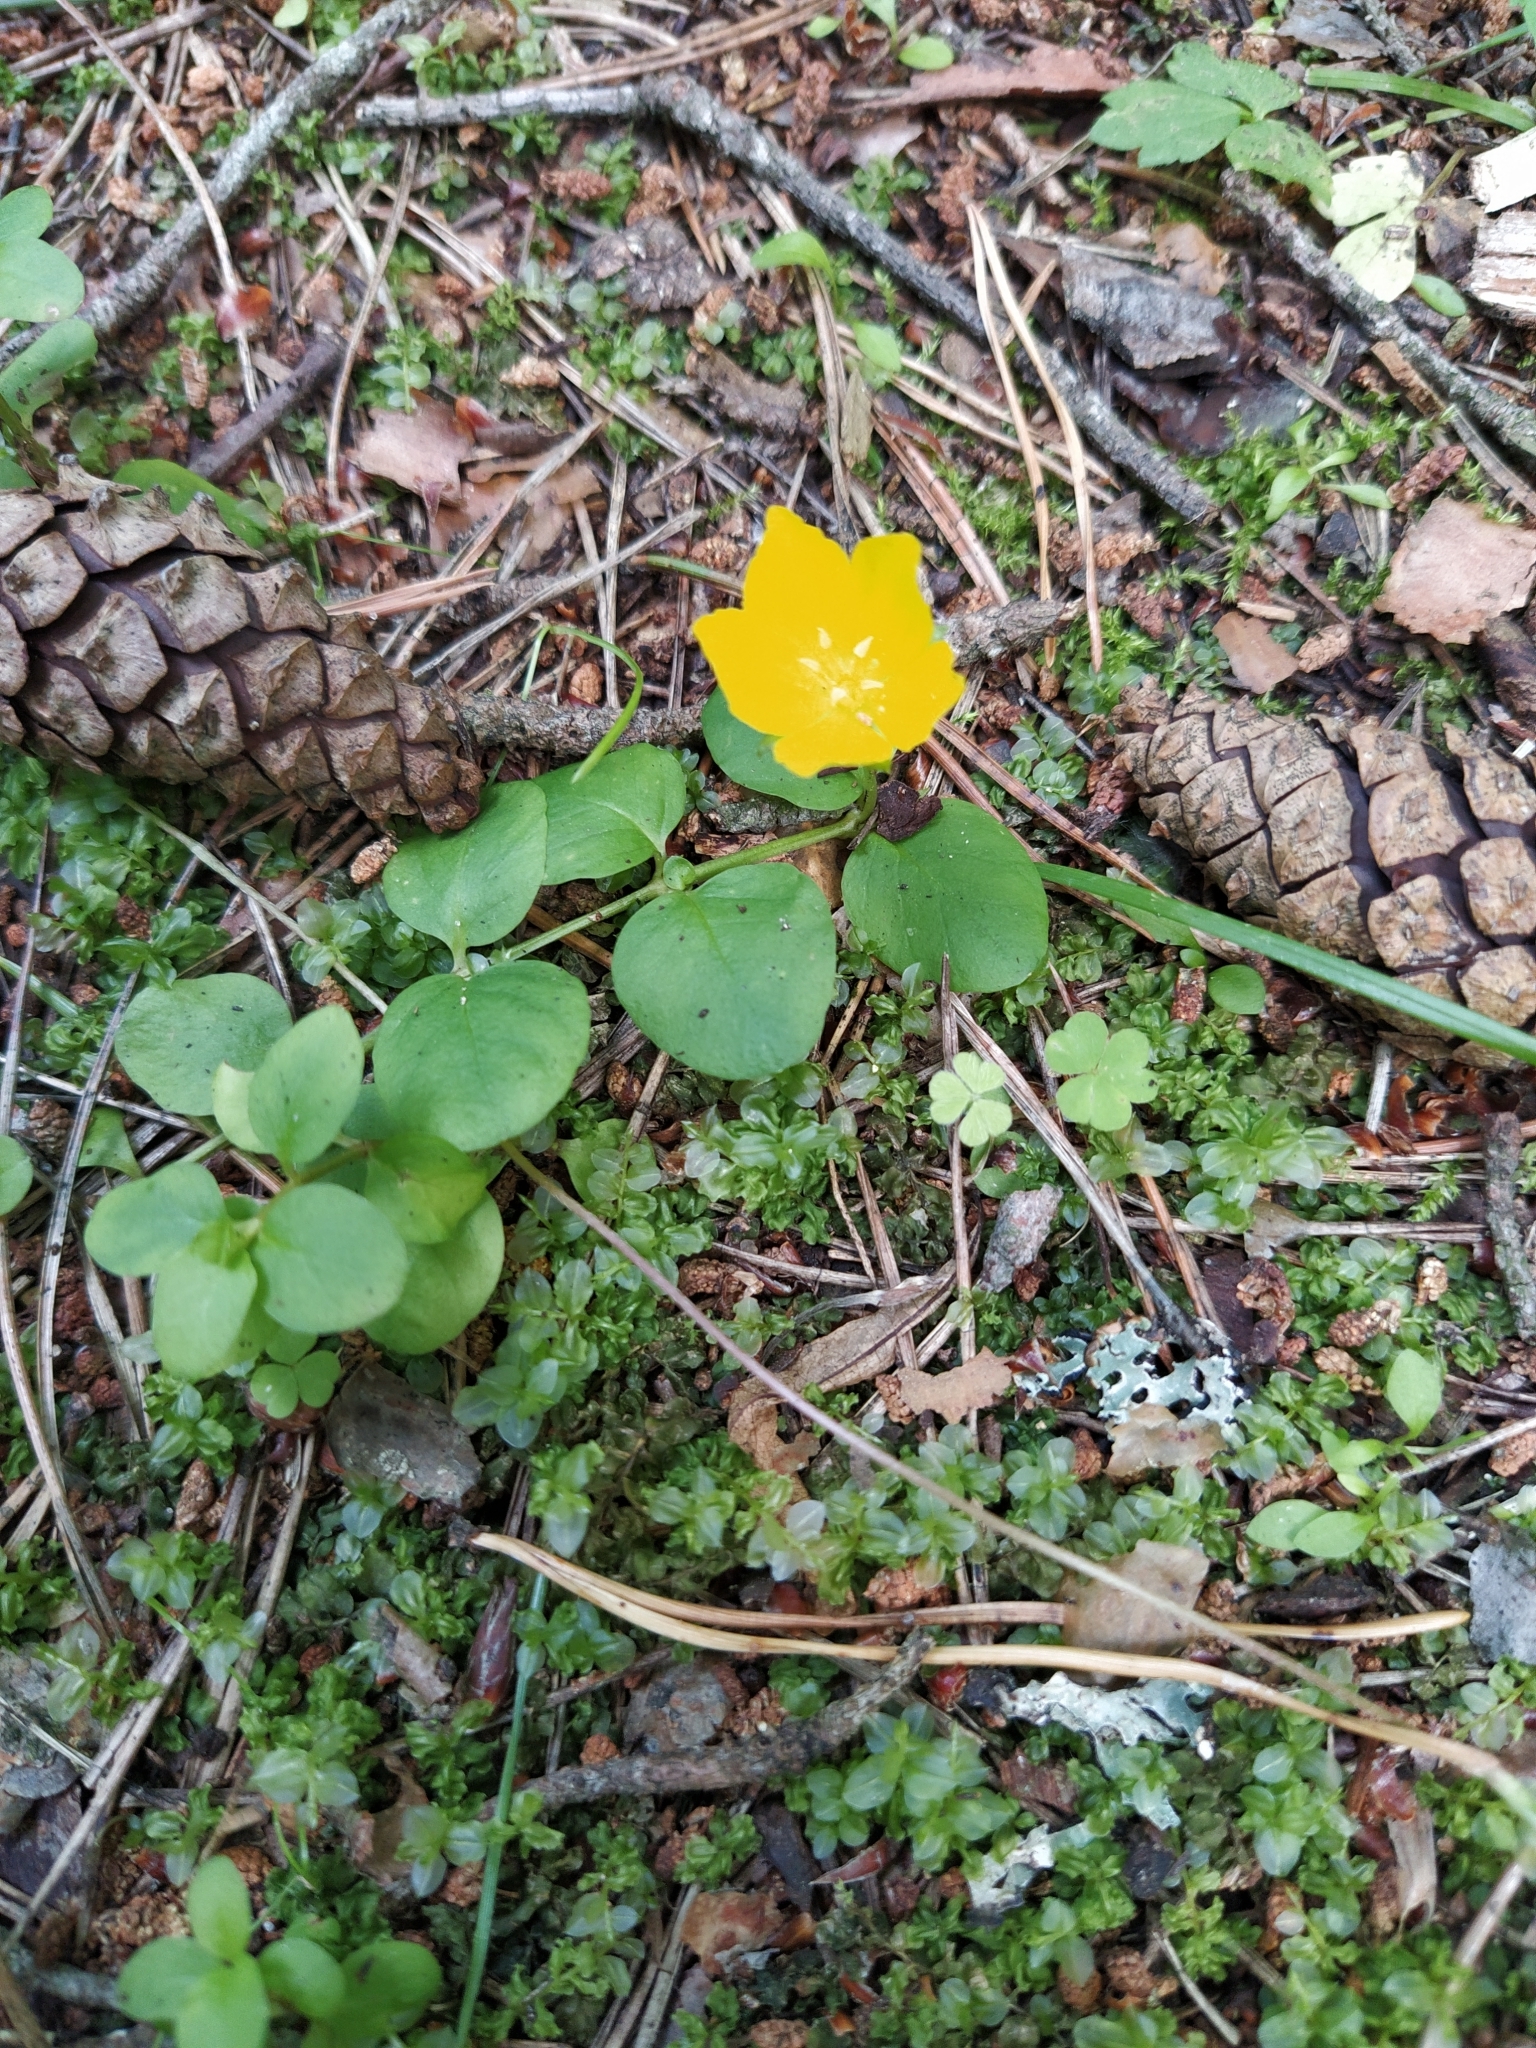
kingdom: Plantae
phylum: Tracheophyta
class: Magnoliopsida
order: Ericales
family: Primulaceae
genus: Lysimachia
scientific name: Lysimachia nummularia
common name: Moneywort
